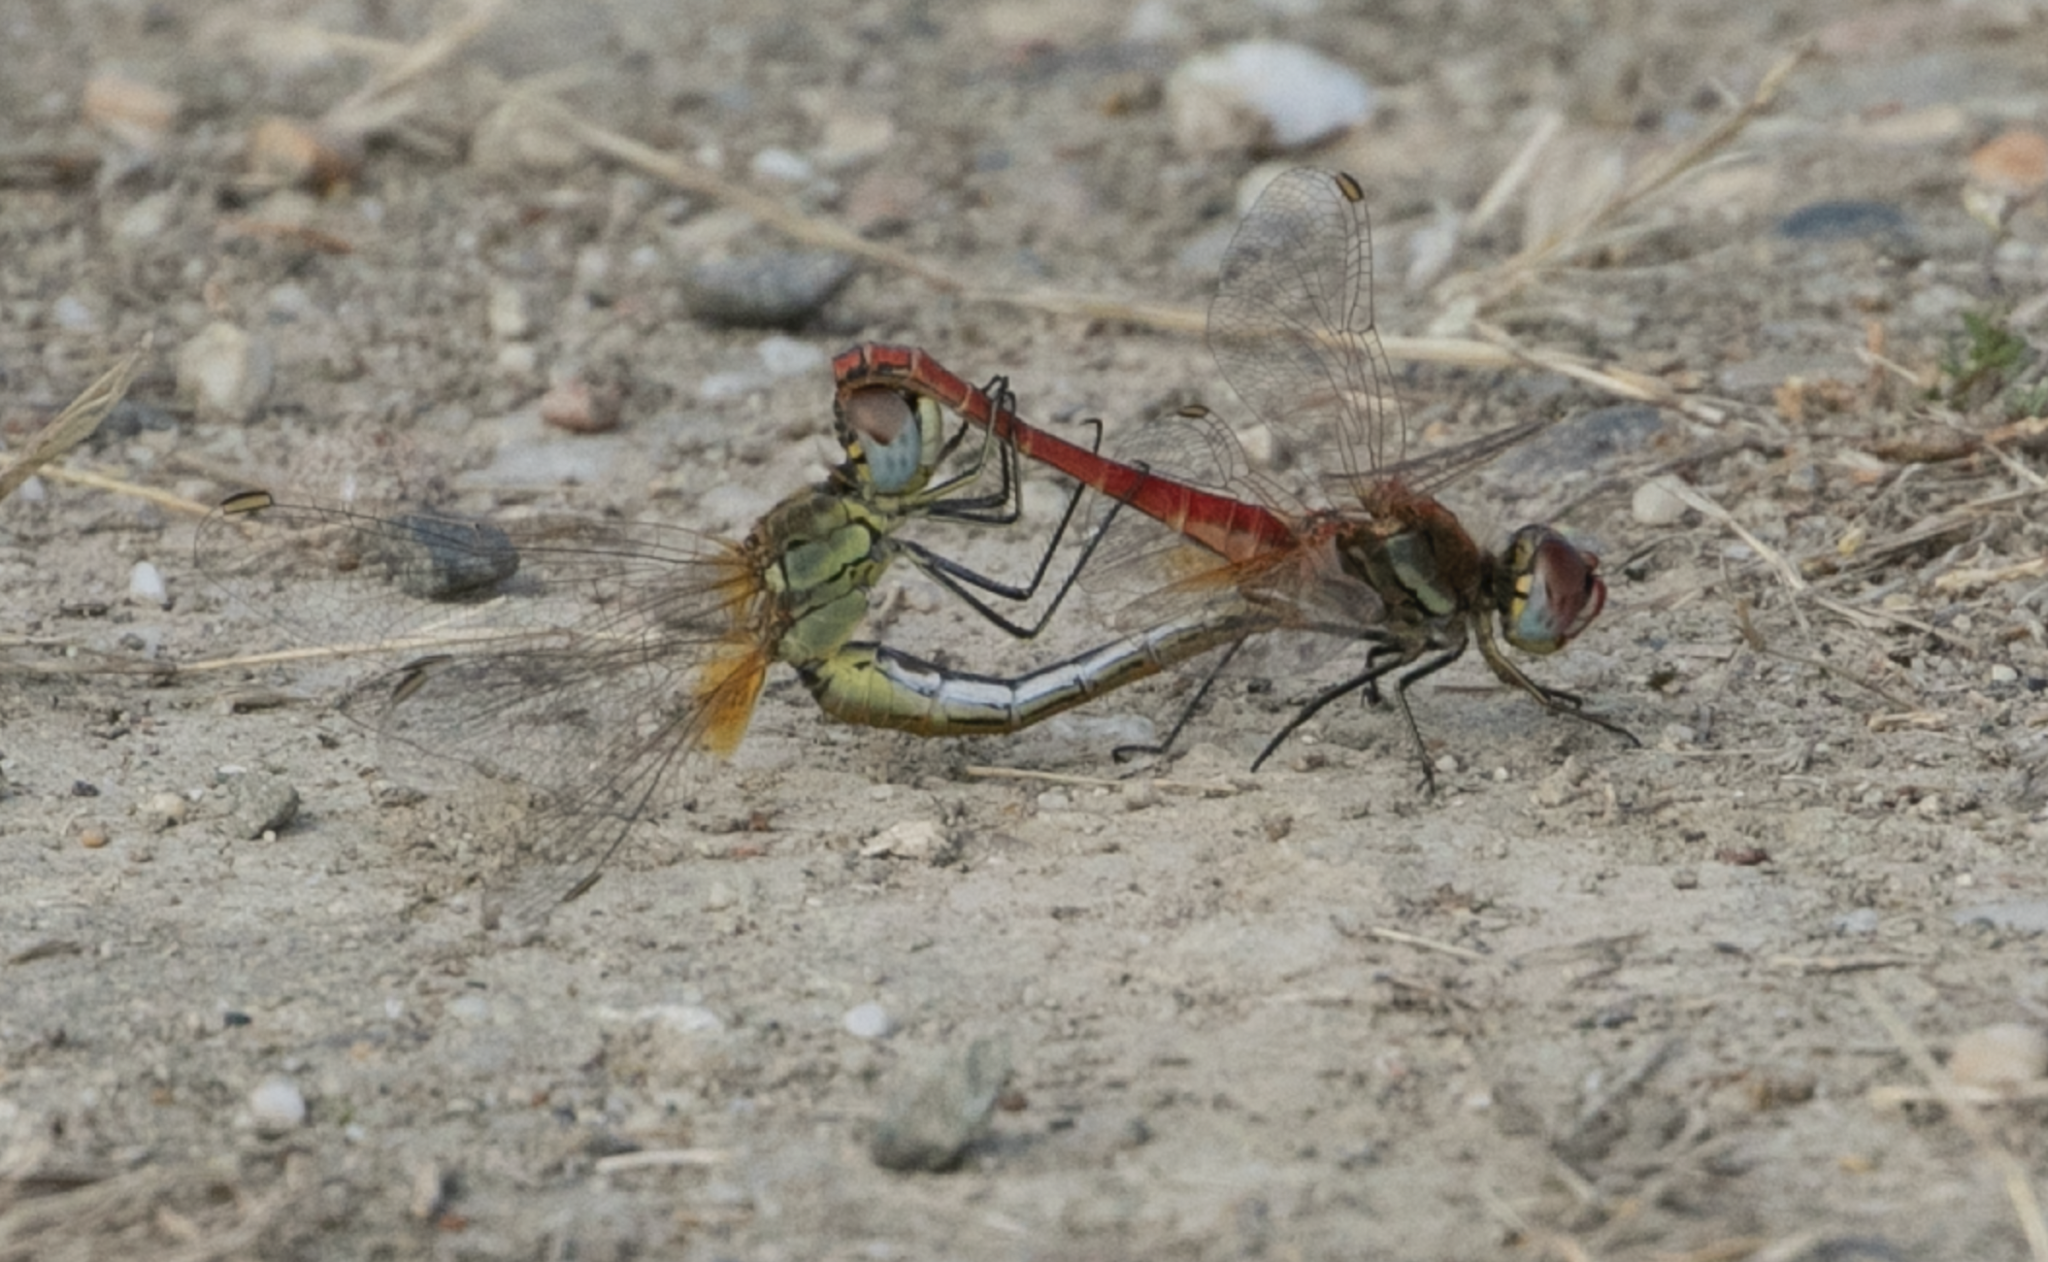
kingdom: Animalia
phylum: Arthropoda
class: Insecta
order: Odonata
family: Libellulidae
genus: Sympetrum
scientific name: Sympetrum fonscolombii
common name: Red-veined darter
